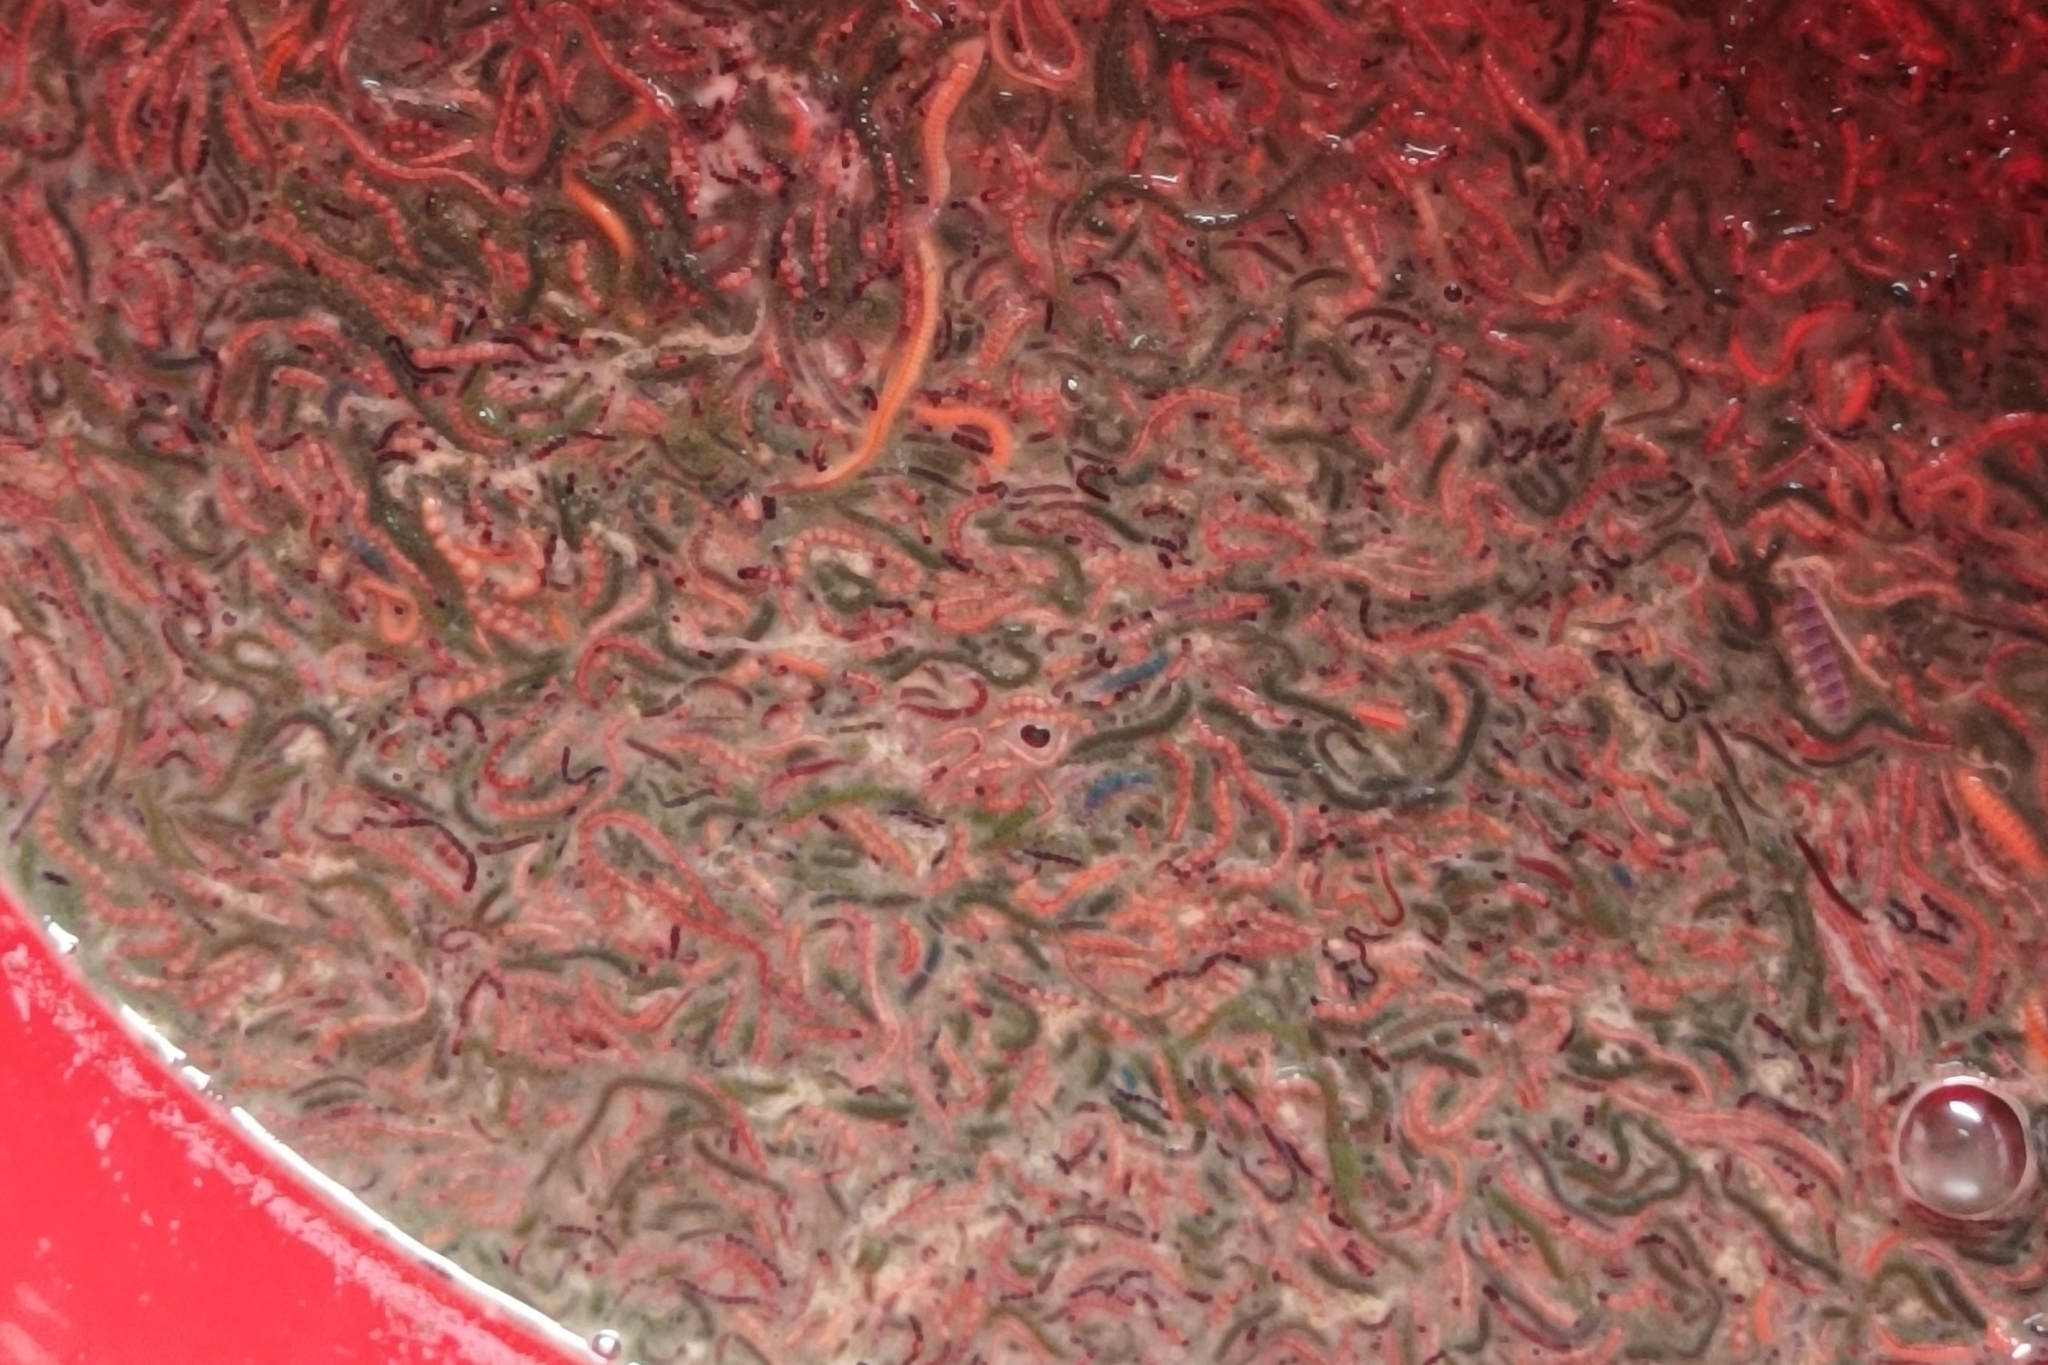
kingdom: Animalia
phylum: Annelida
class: Polychaeta
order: Eunicida
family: Eunicidae
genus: Palola
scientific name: Palola viridis
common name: Pacific palolo worm
